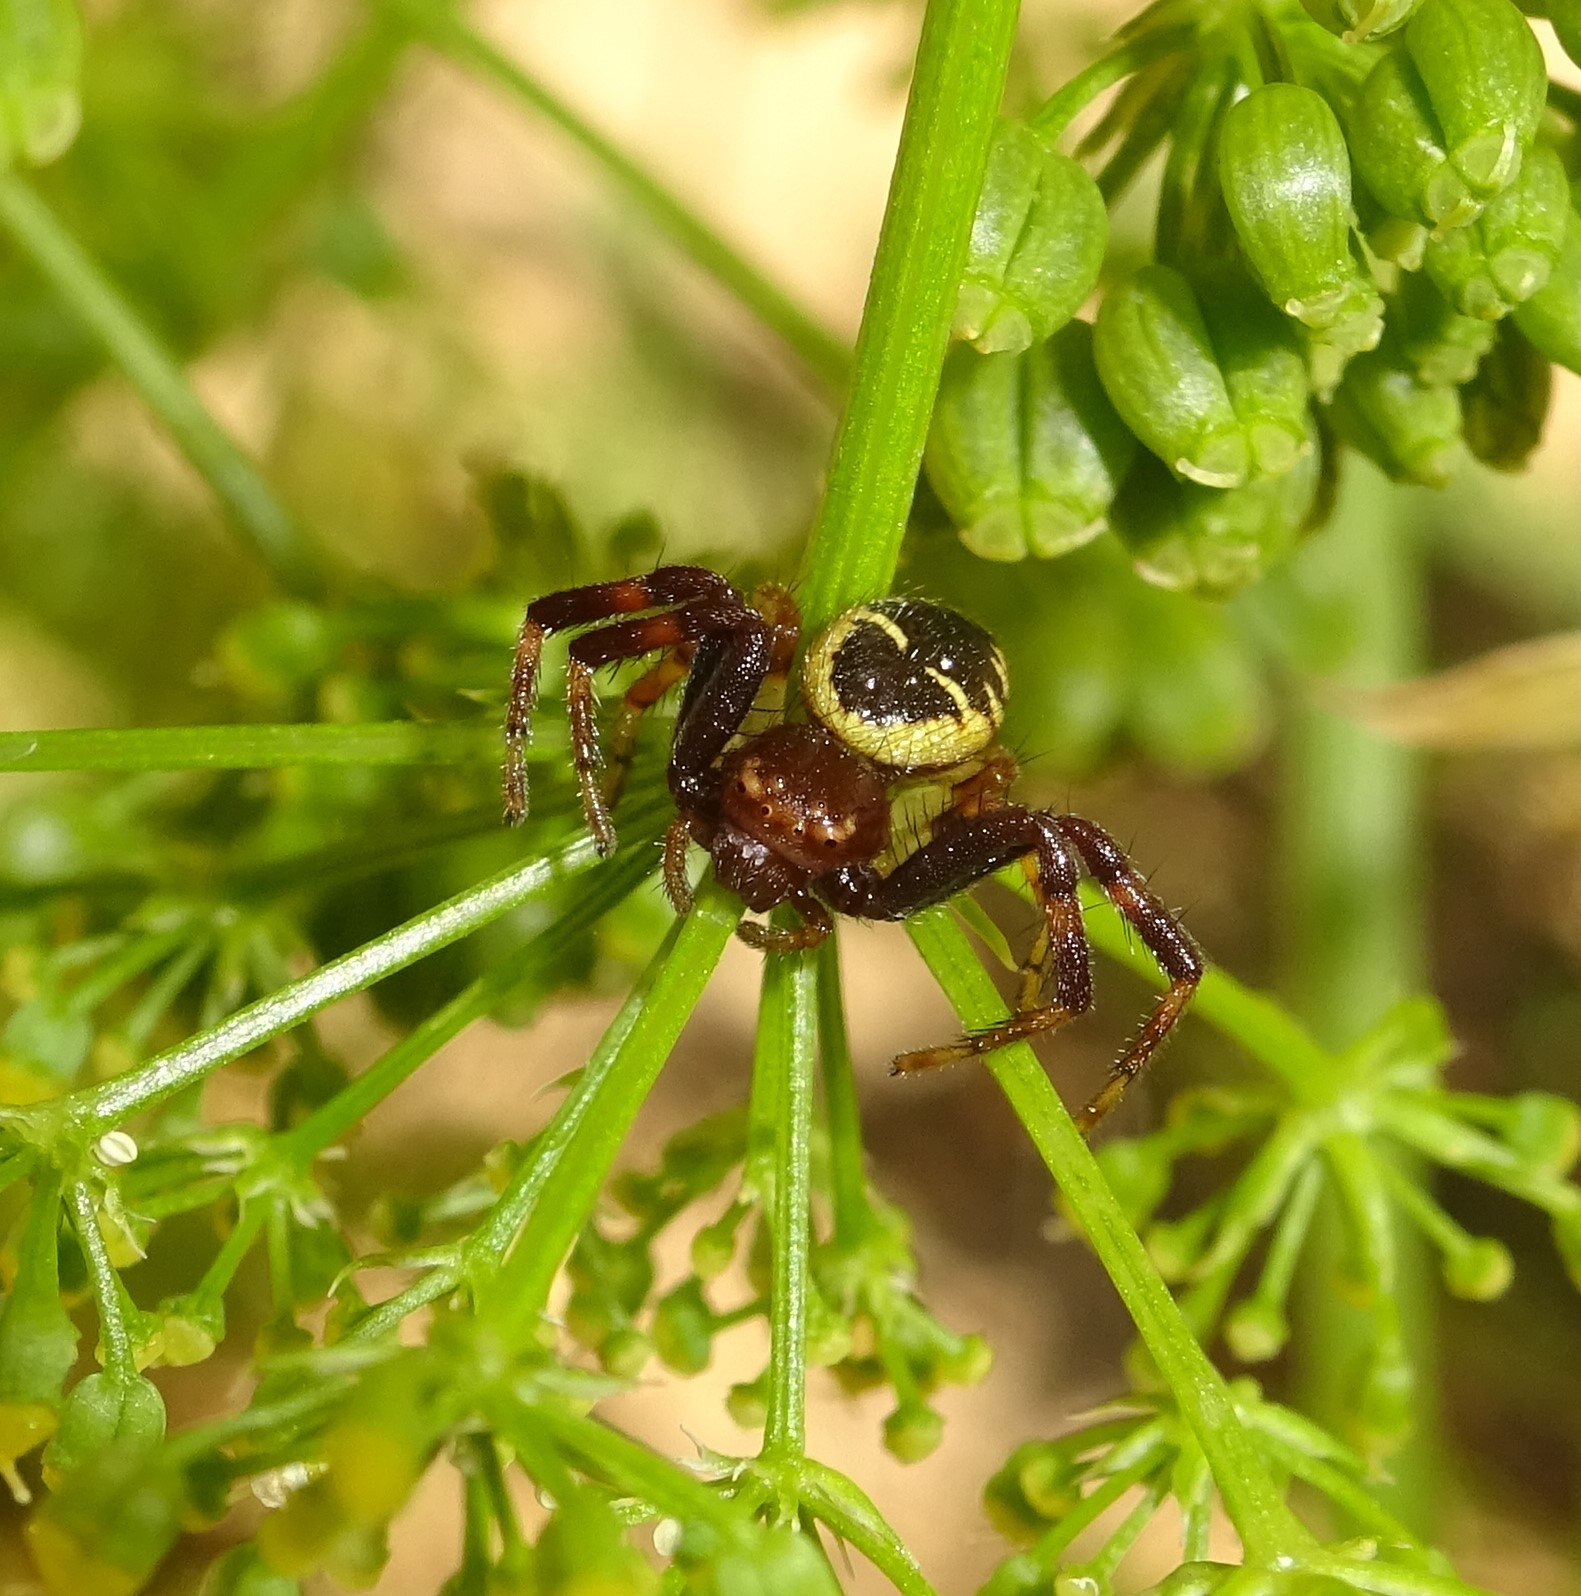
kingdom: Animalia
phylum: Arthropoda
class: Arachnida
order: Araneae
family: Thomisidae
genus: Synema
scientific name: Synema globosum
